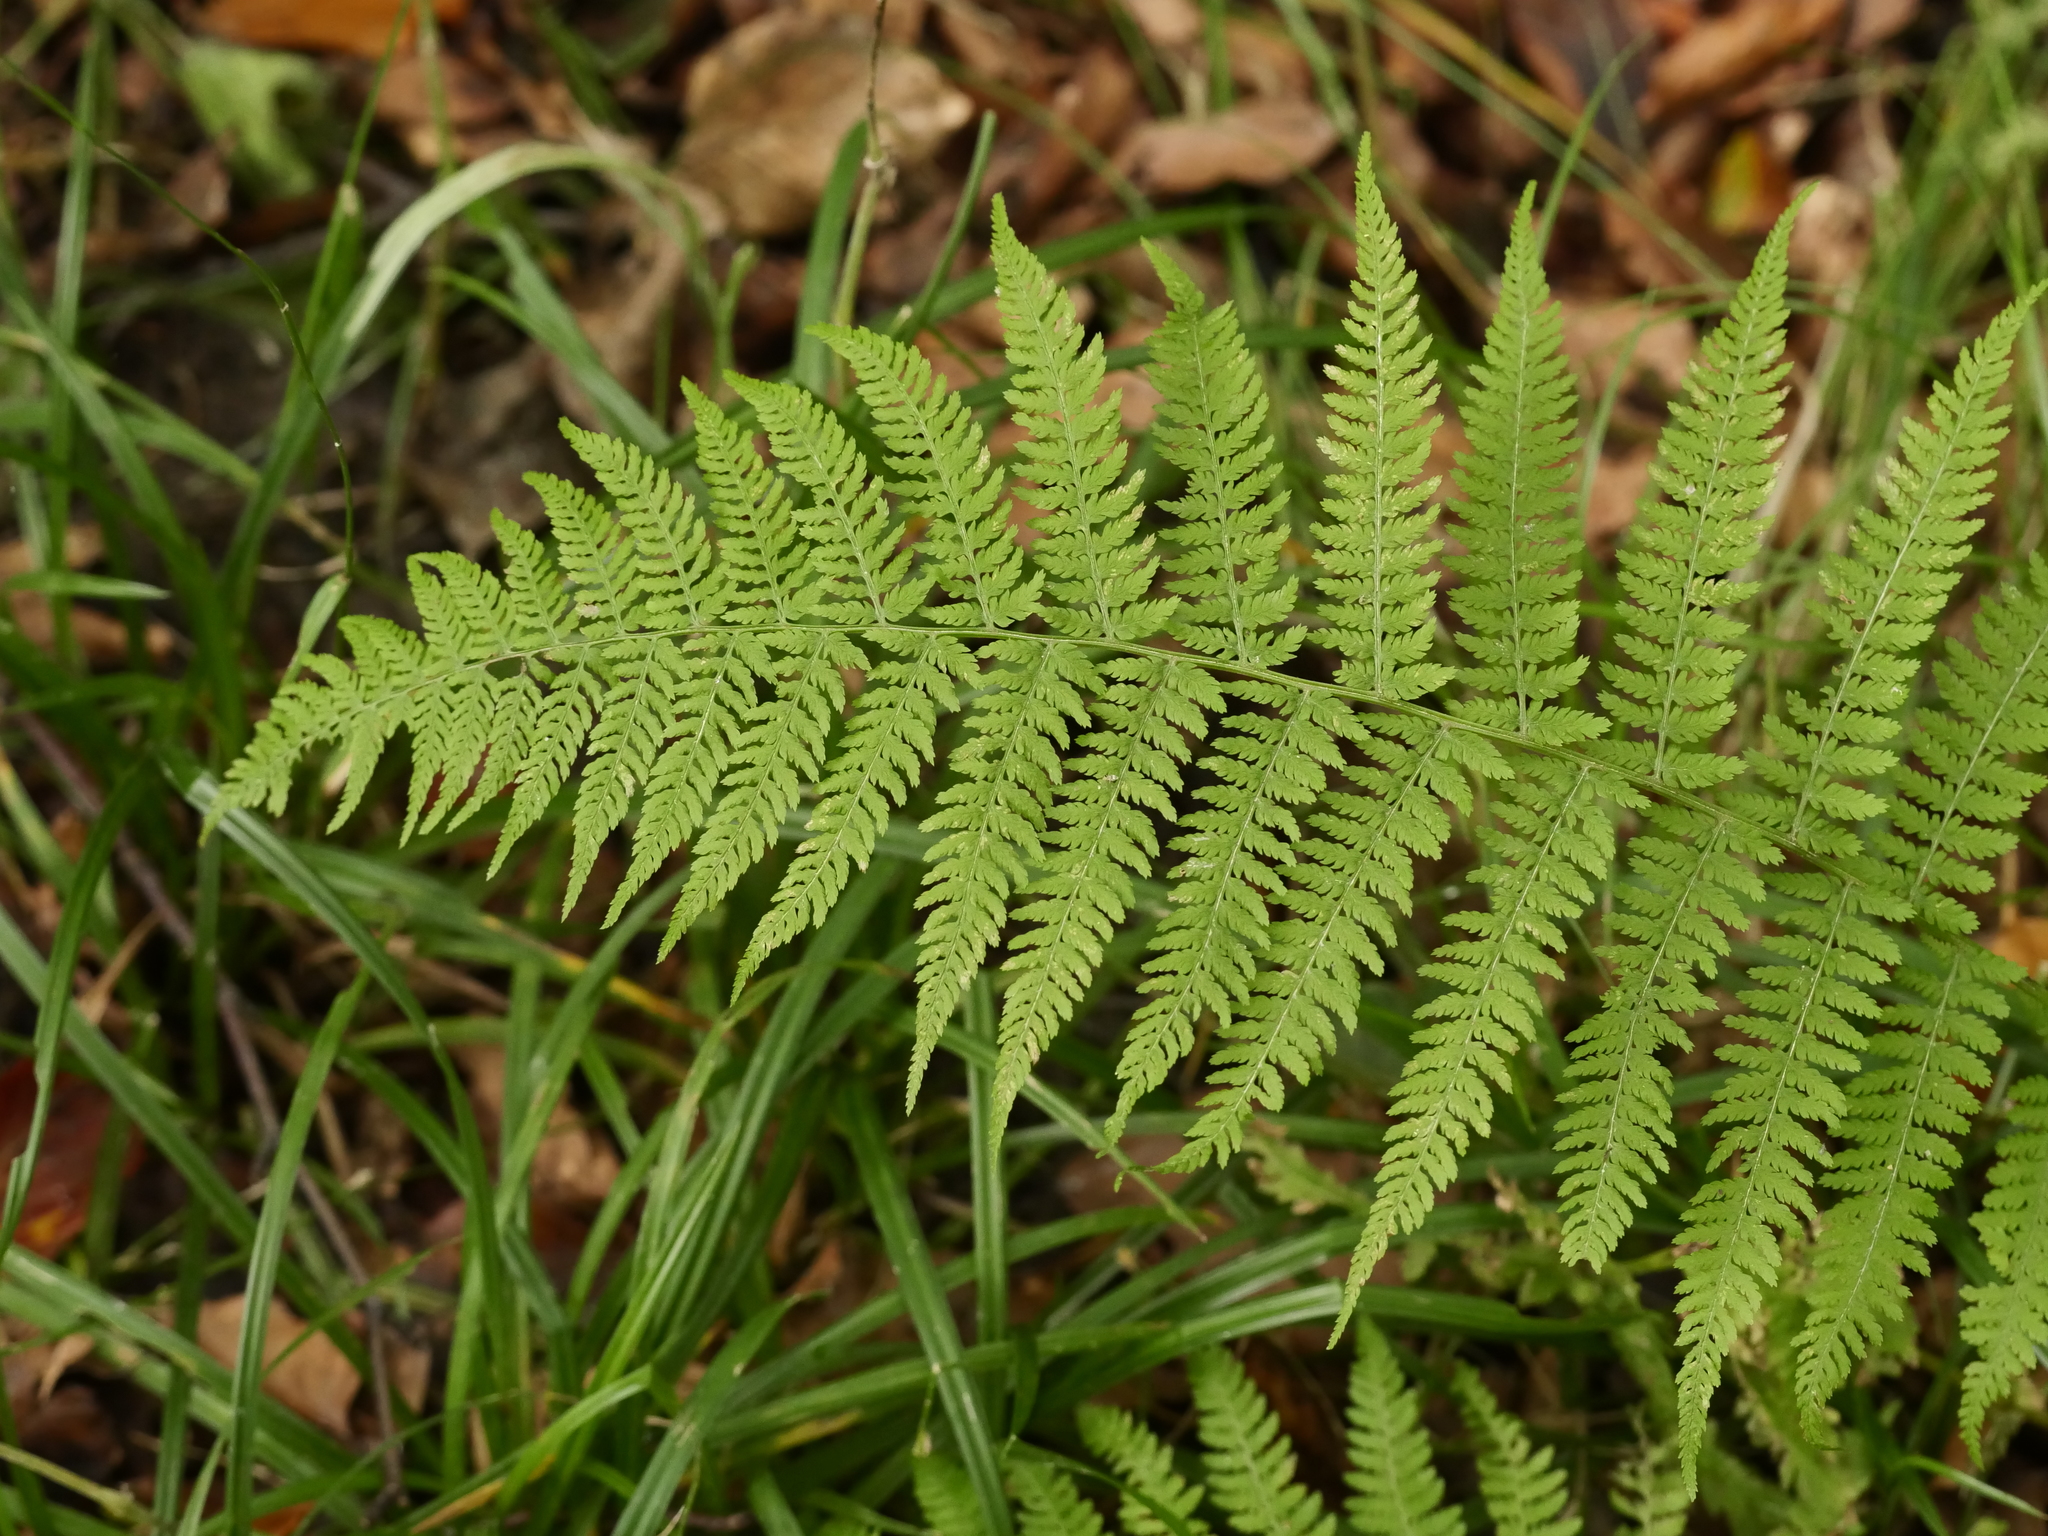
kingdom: Plantae
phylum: Tracheophyta
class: Polypodiopsida
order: Polypodiales
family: Athyriaceae
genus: Athyrium
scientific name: Athyrium filix-femina
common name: Lady fern
